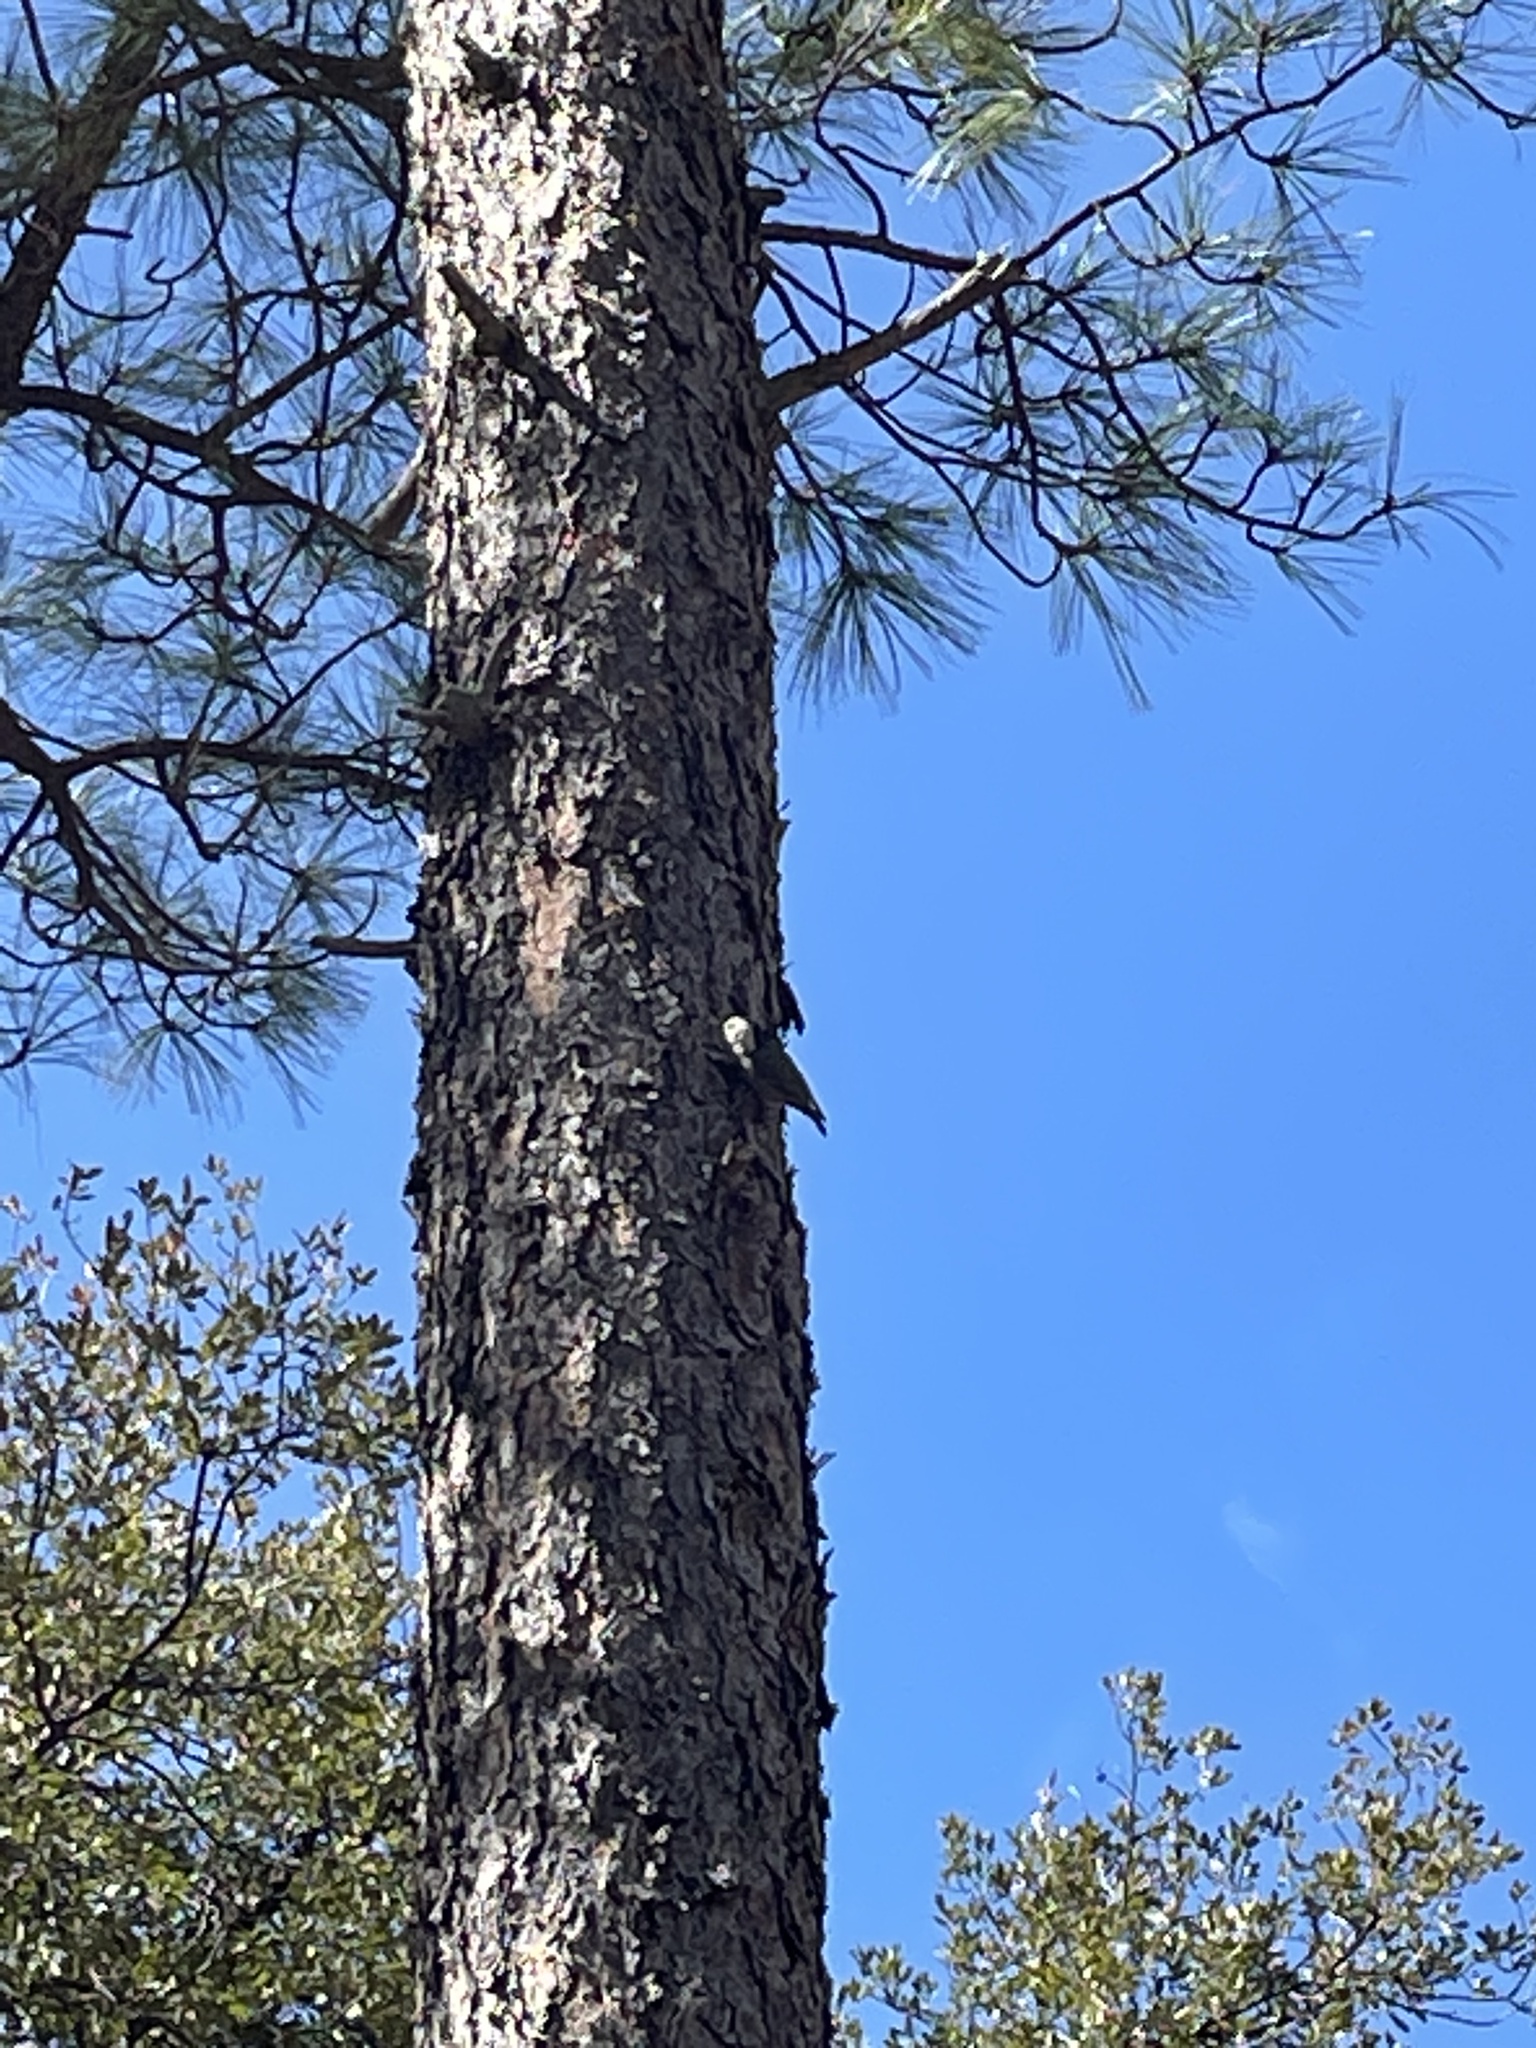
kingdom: Animalia
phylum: Chordata
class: Aves
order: Passeriformes
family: Sittidae
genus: Sitta
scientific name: Sitta carolinensis
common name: White-breasted nuthatch
